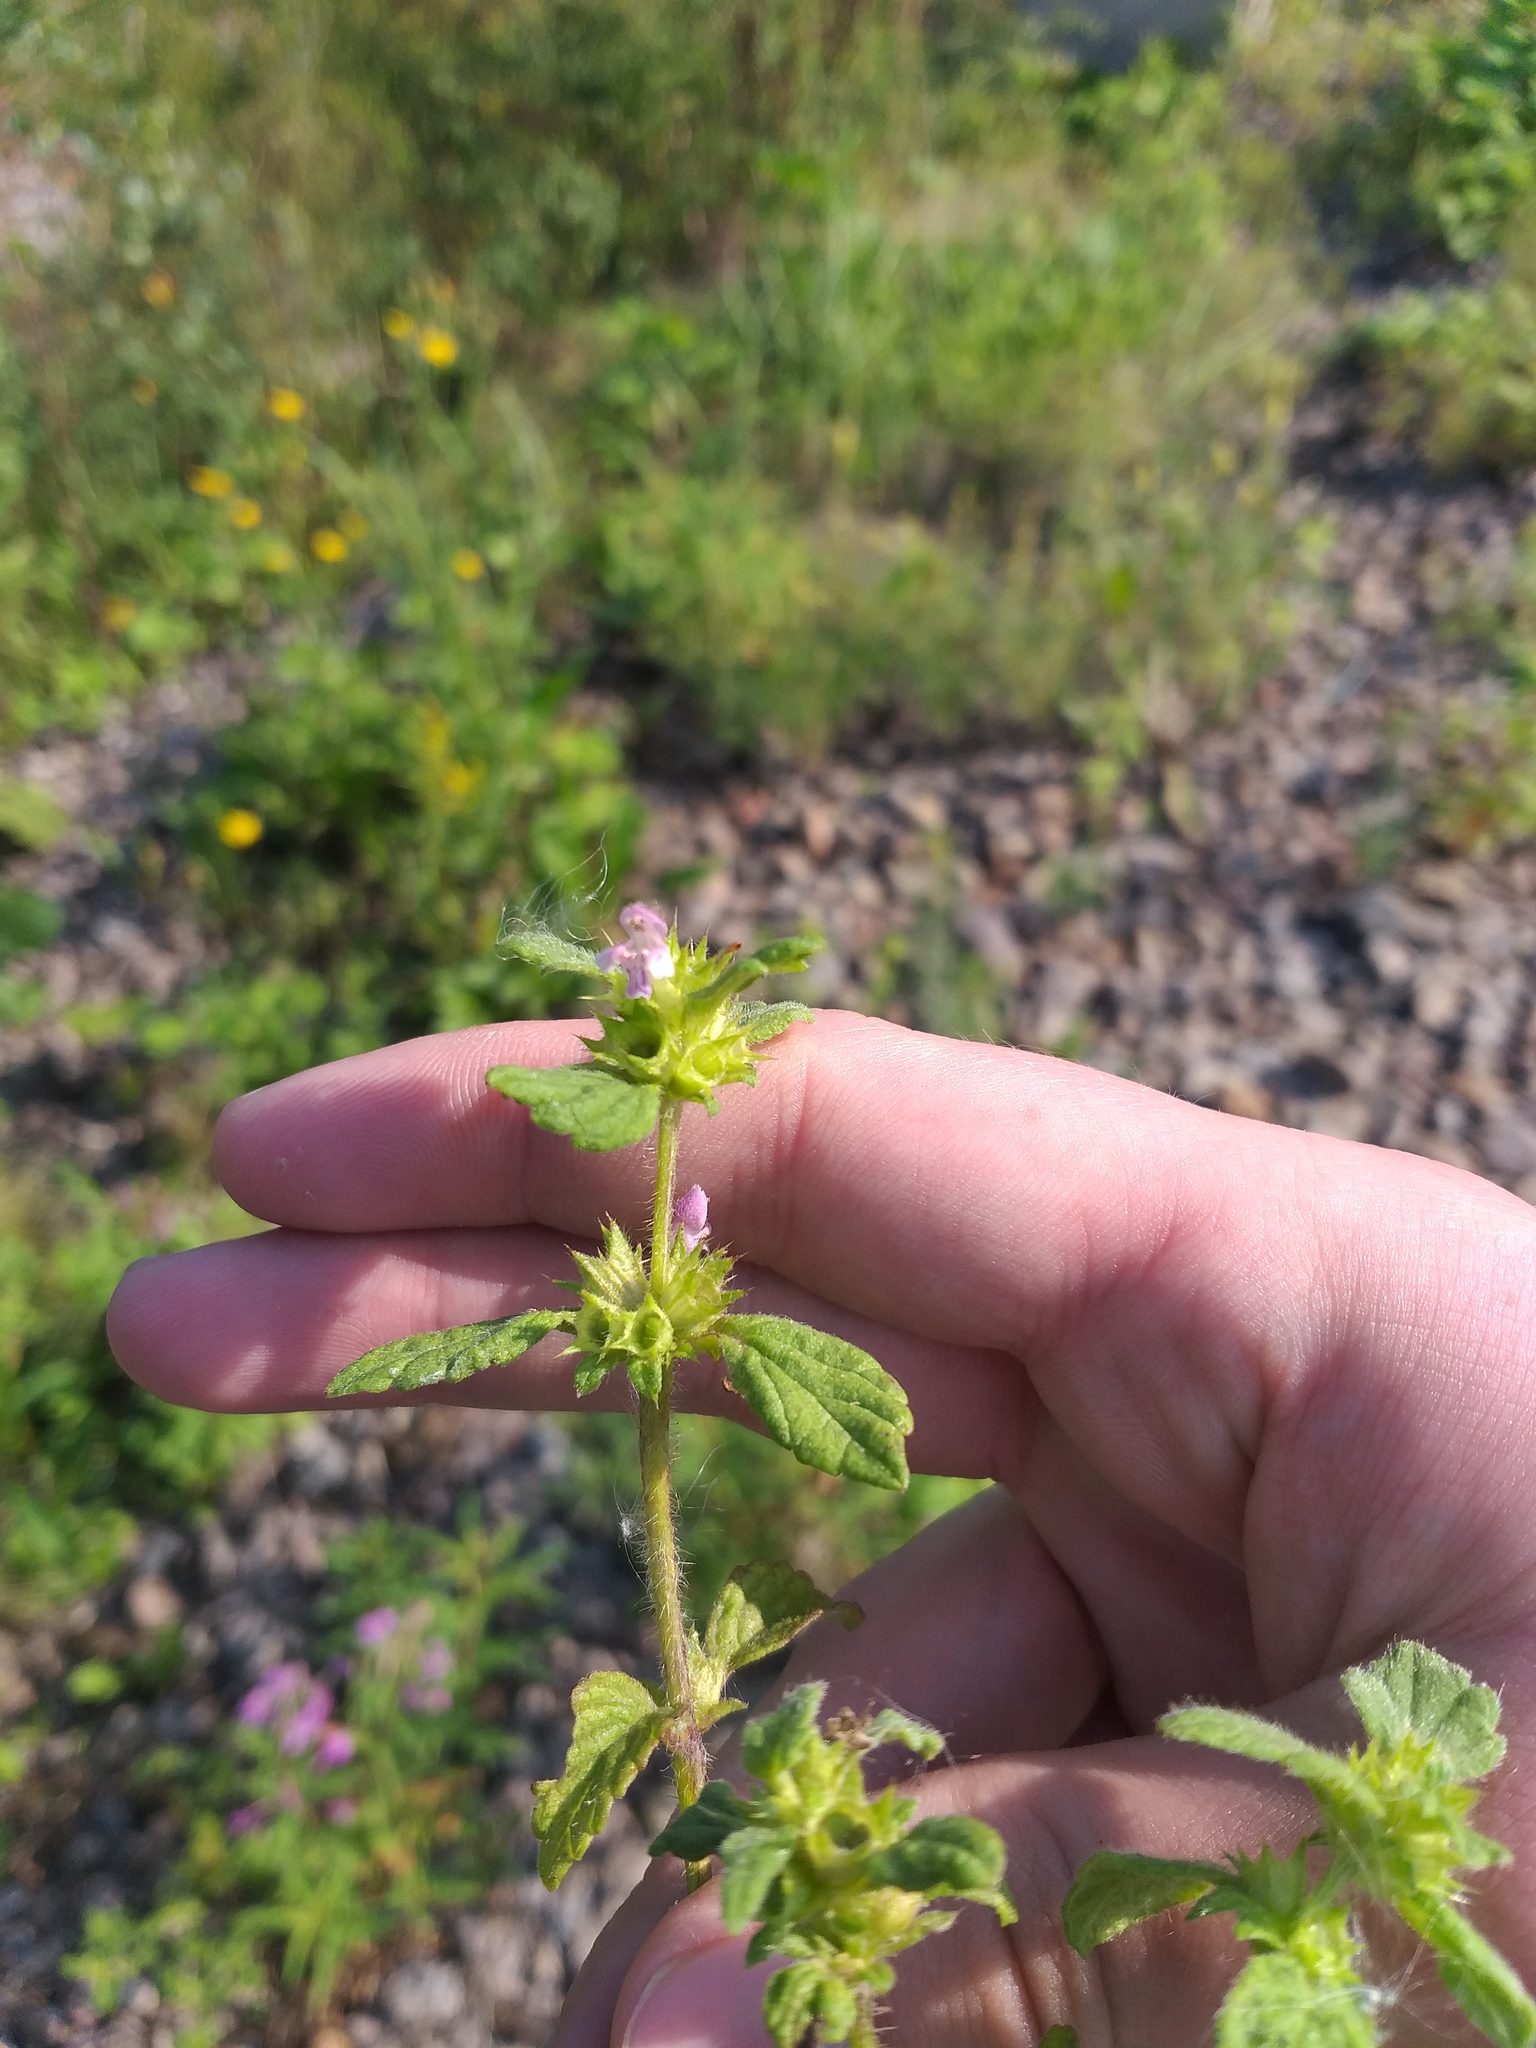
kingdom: Plantae
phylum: Tracheophyta
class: Magnoliopsida
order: Lamiales
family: Lamiaceae
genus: Galeopsis
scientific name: Galeopsis bifida
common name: Bifid hemp-nettle
